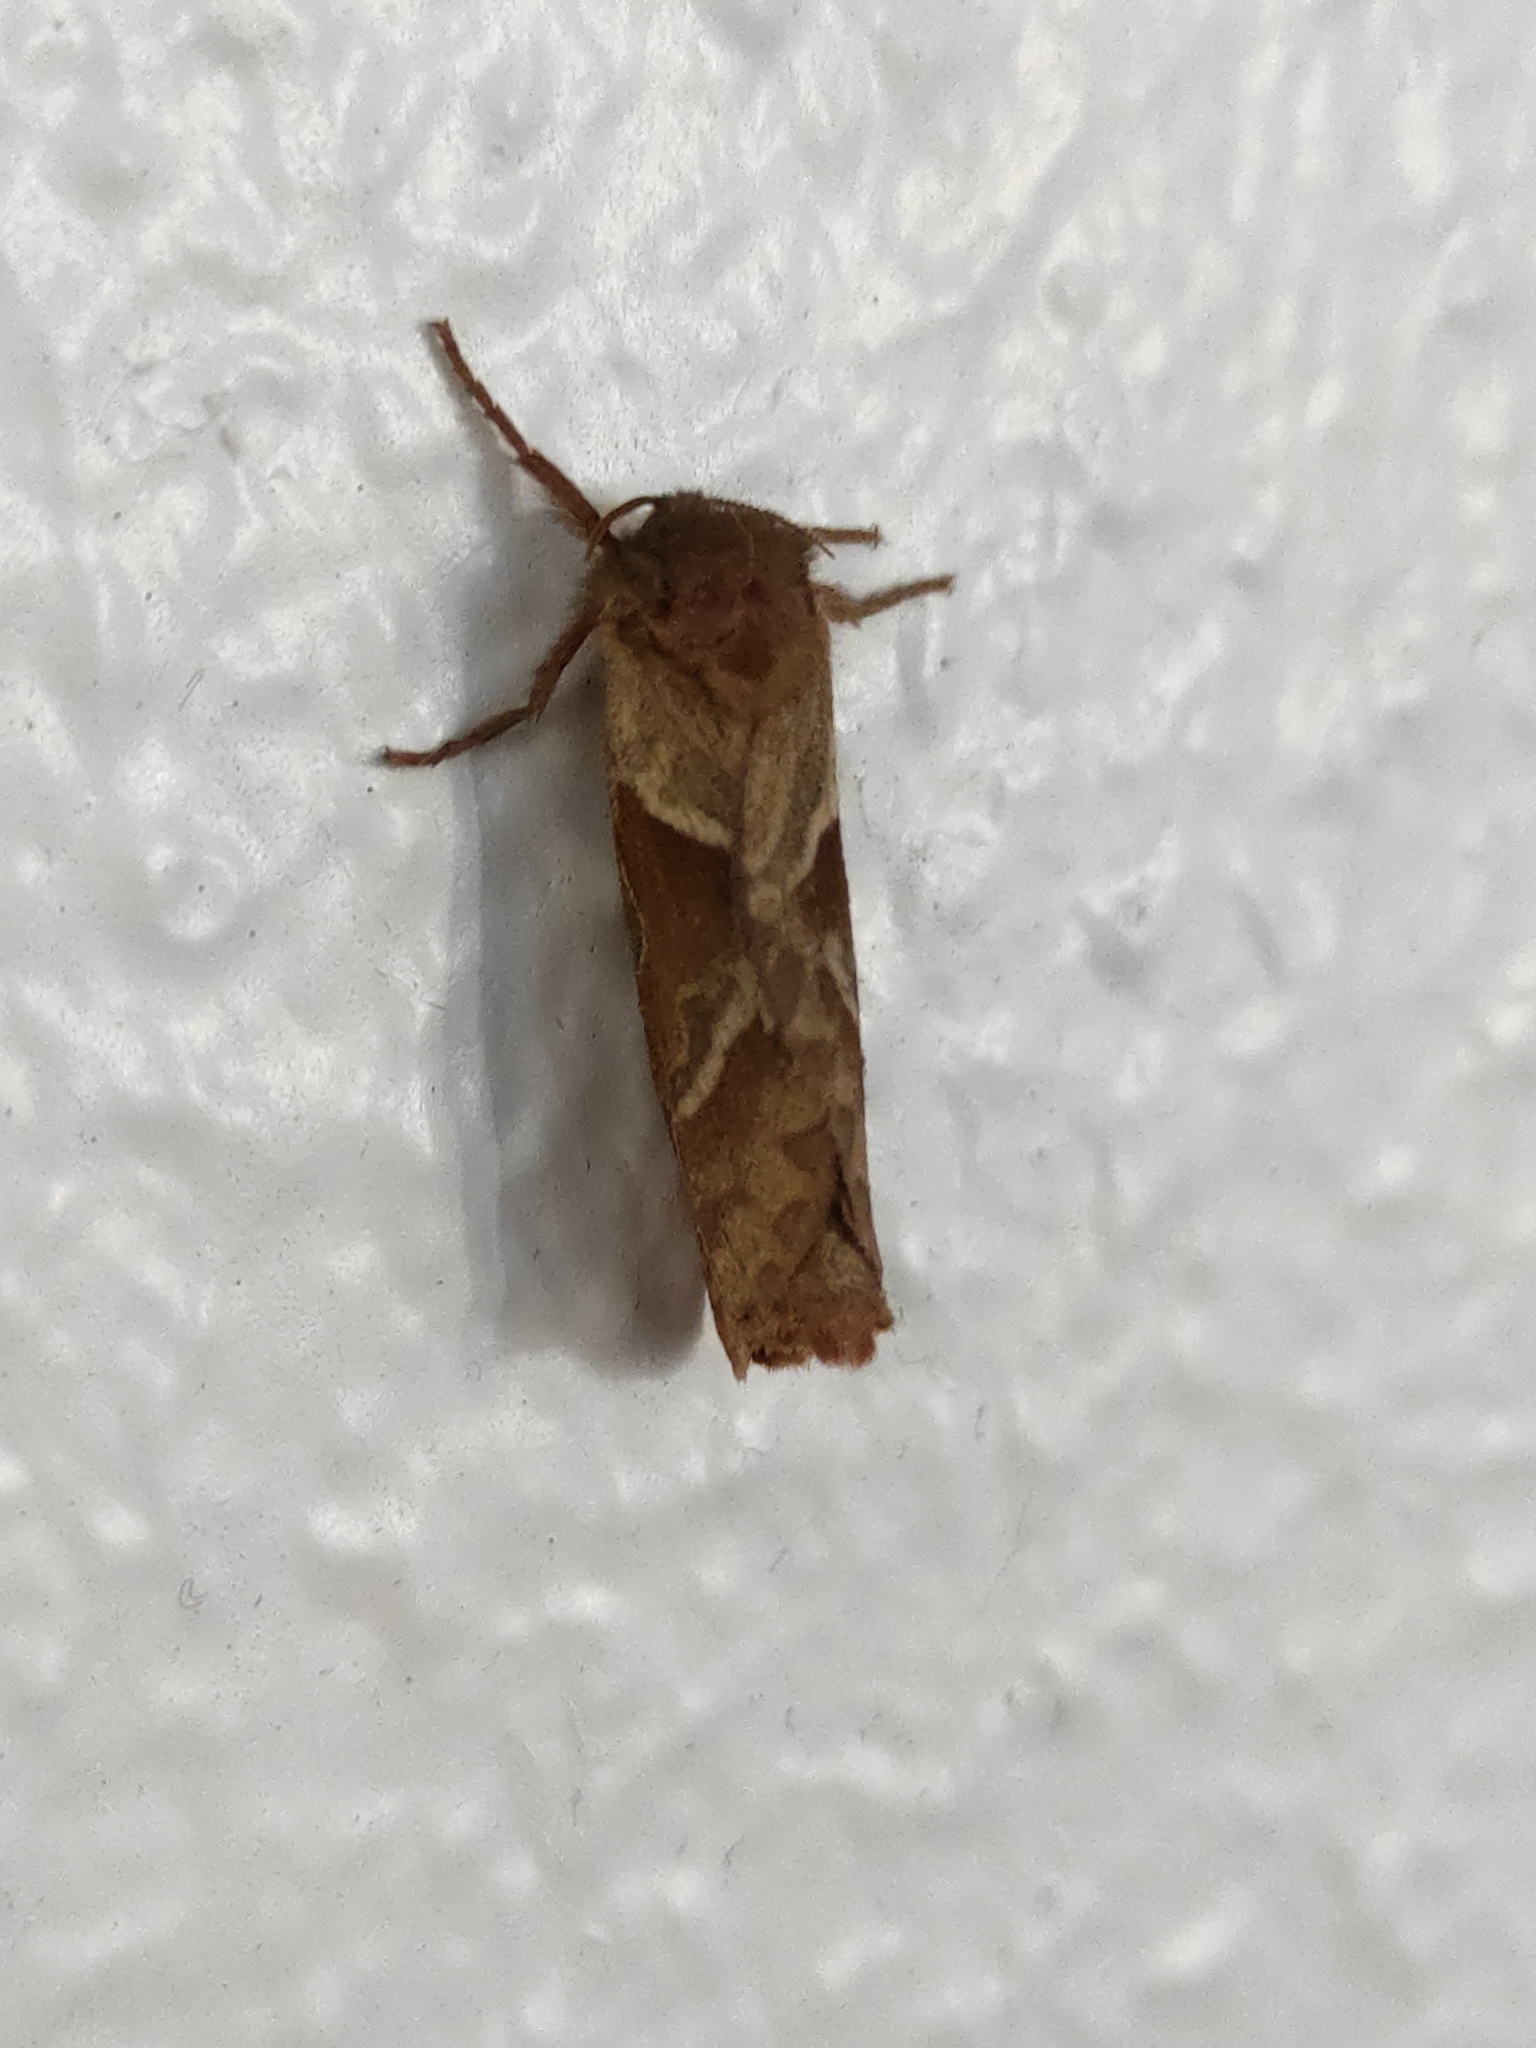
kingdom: Animalia
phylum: Arthropoda
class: Insecta
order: Lepidoptera
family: Hepialidae
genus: Triodia
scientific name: Triodia sylvina
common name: Orange swift
